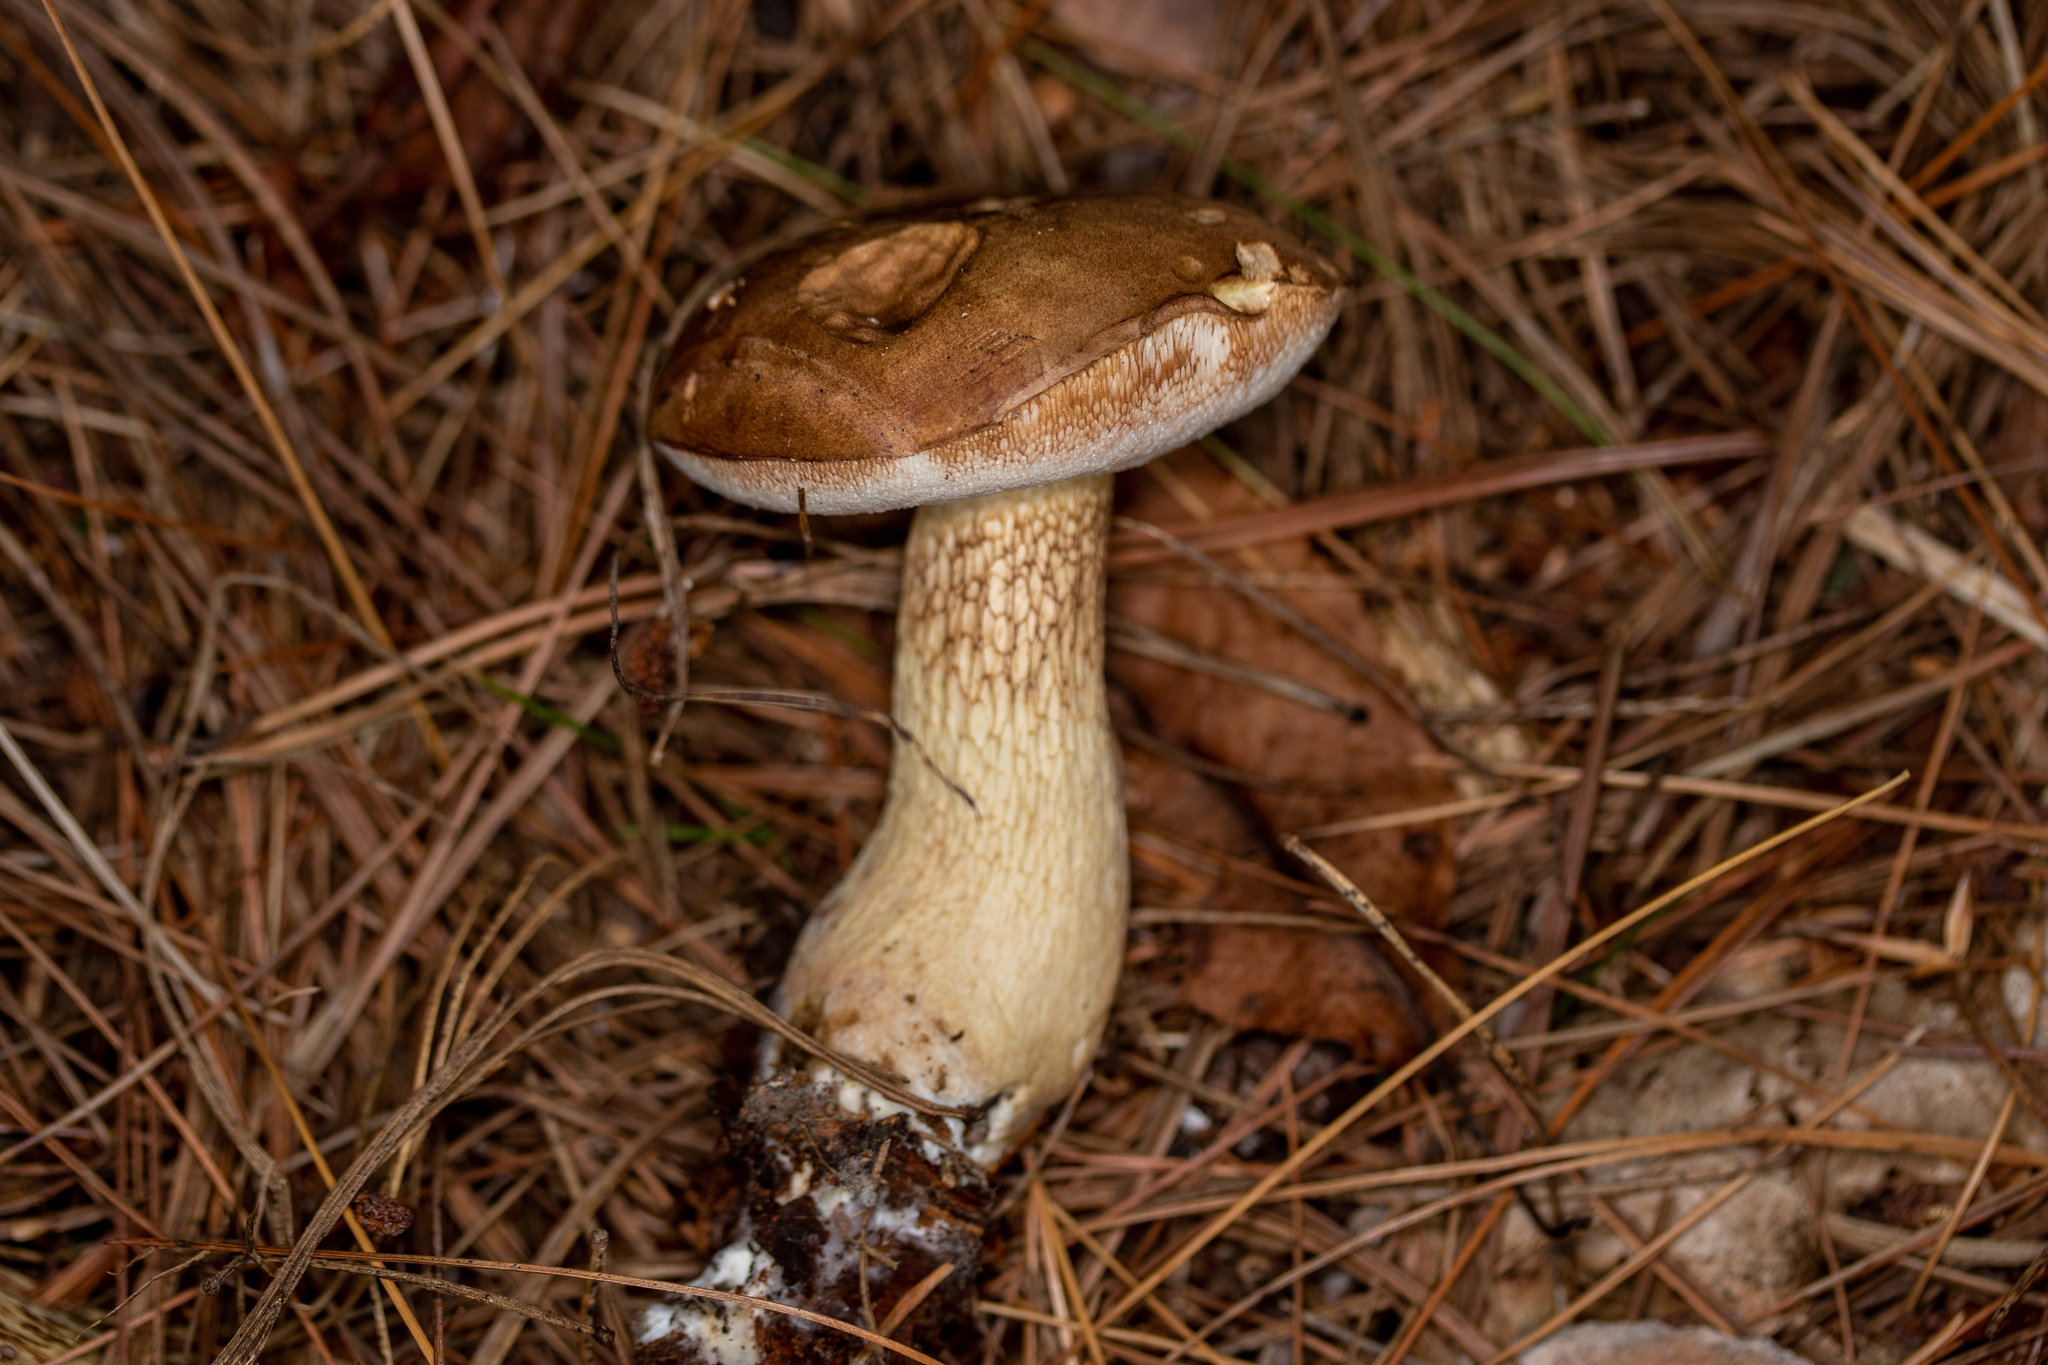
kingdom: Fungi
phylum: Basidiomycota
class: Agaricomycetes
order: Boletales
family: Boletaceae
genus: Tylopilus
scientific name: Tylopilus felleus
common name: Bitter bolete
